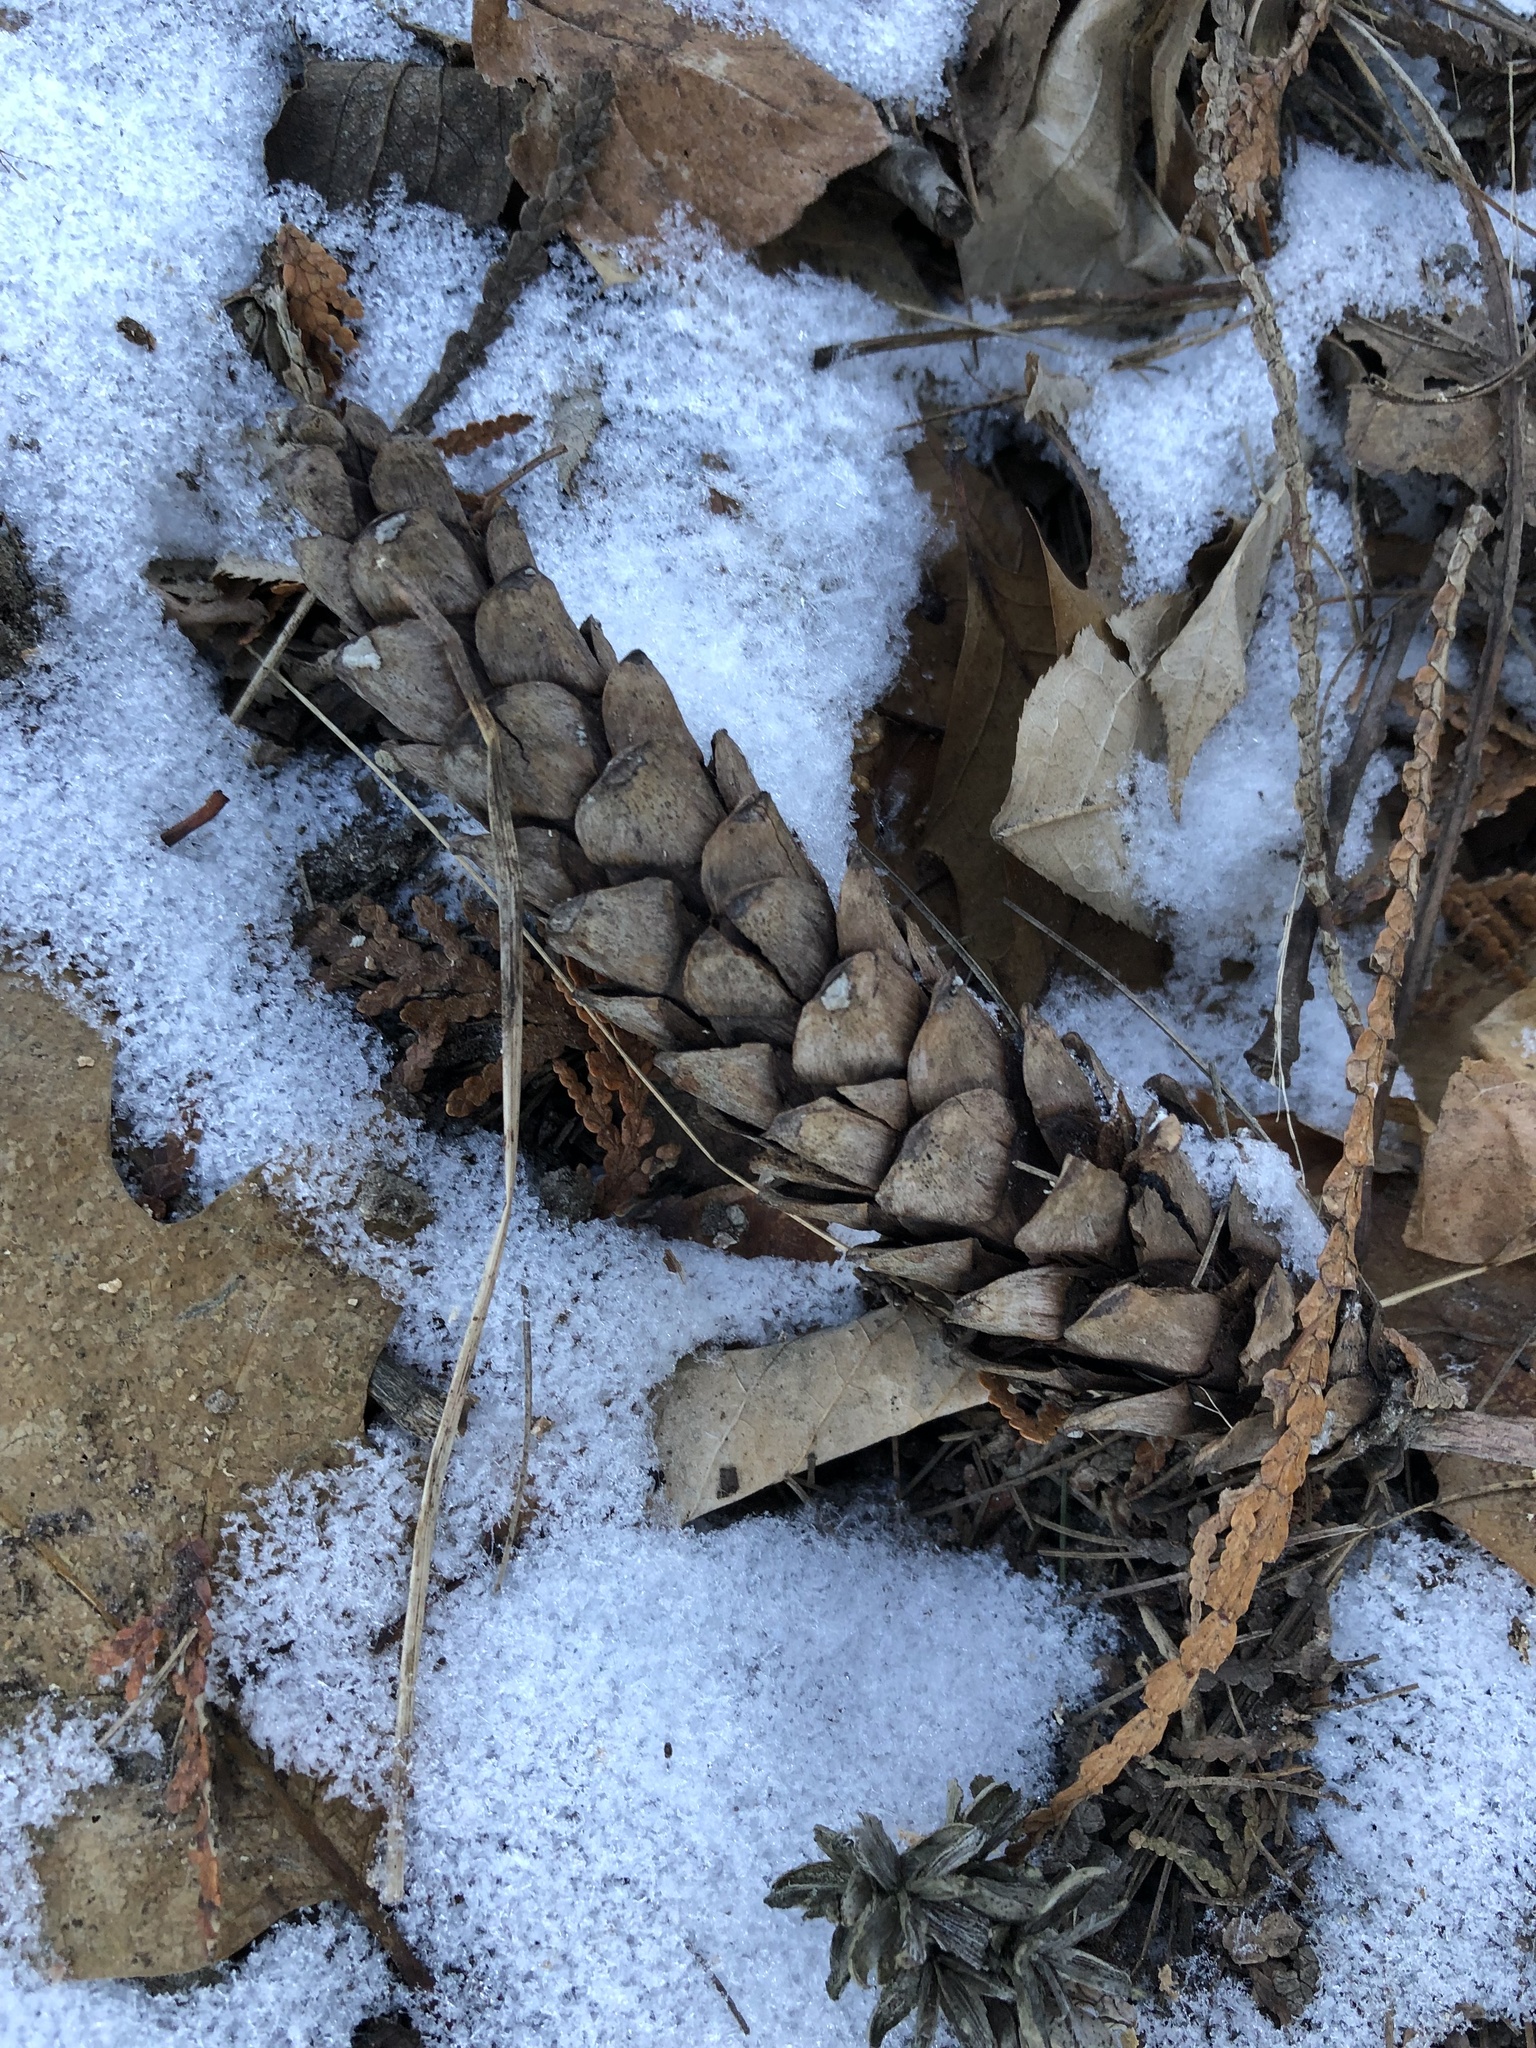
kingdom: Plantae
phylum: Tracheophyta
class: Pinopsida
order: Pinales
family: Pinaceae
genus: Pinus
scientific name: Pinus strobus
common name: Weymouth pine
